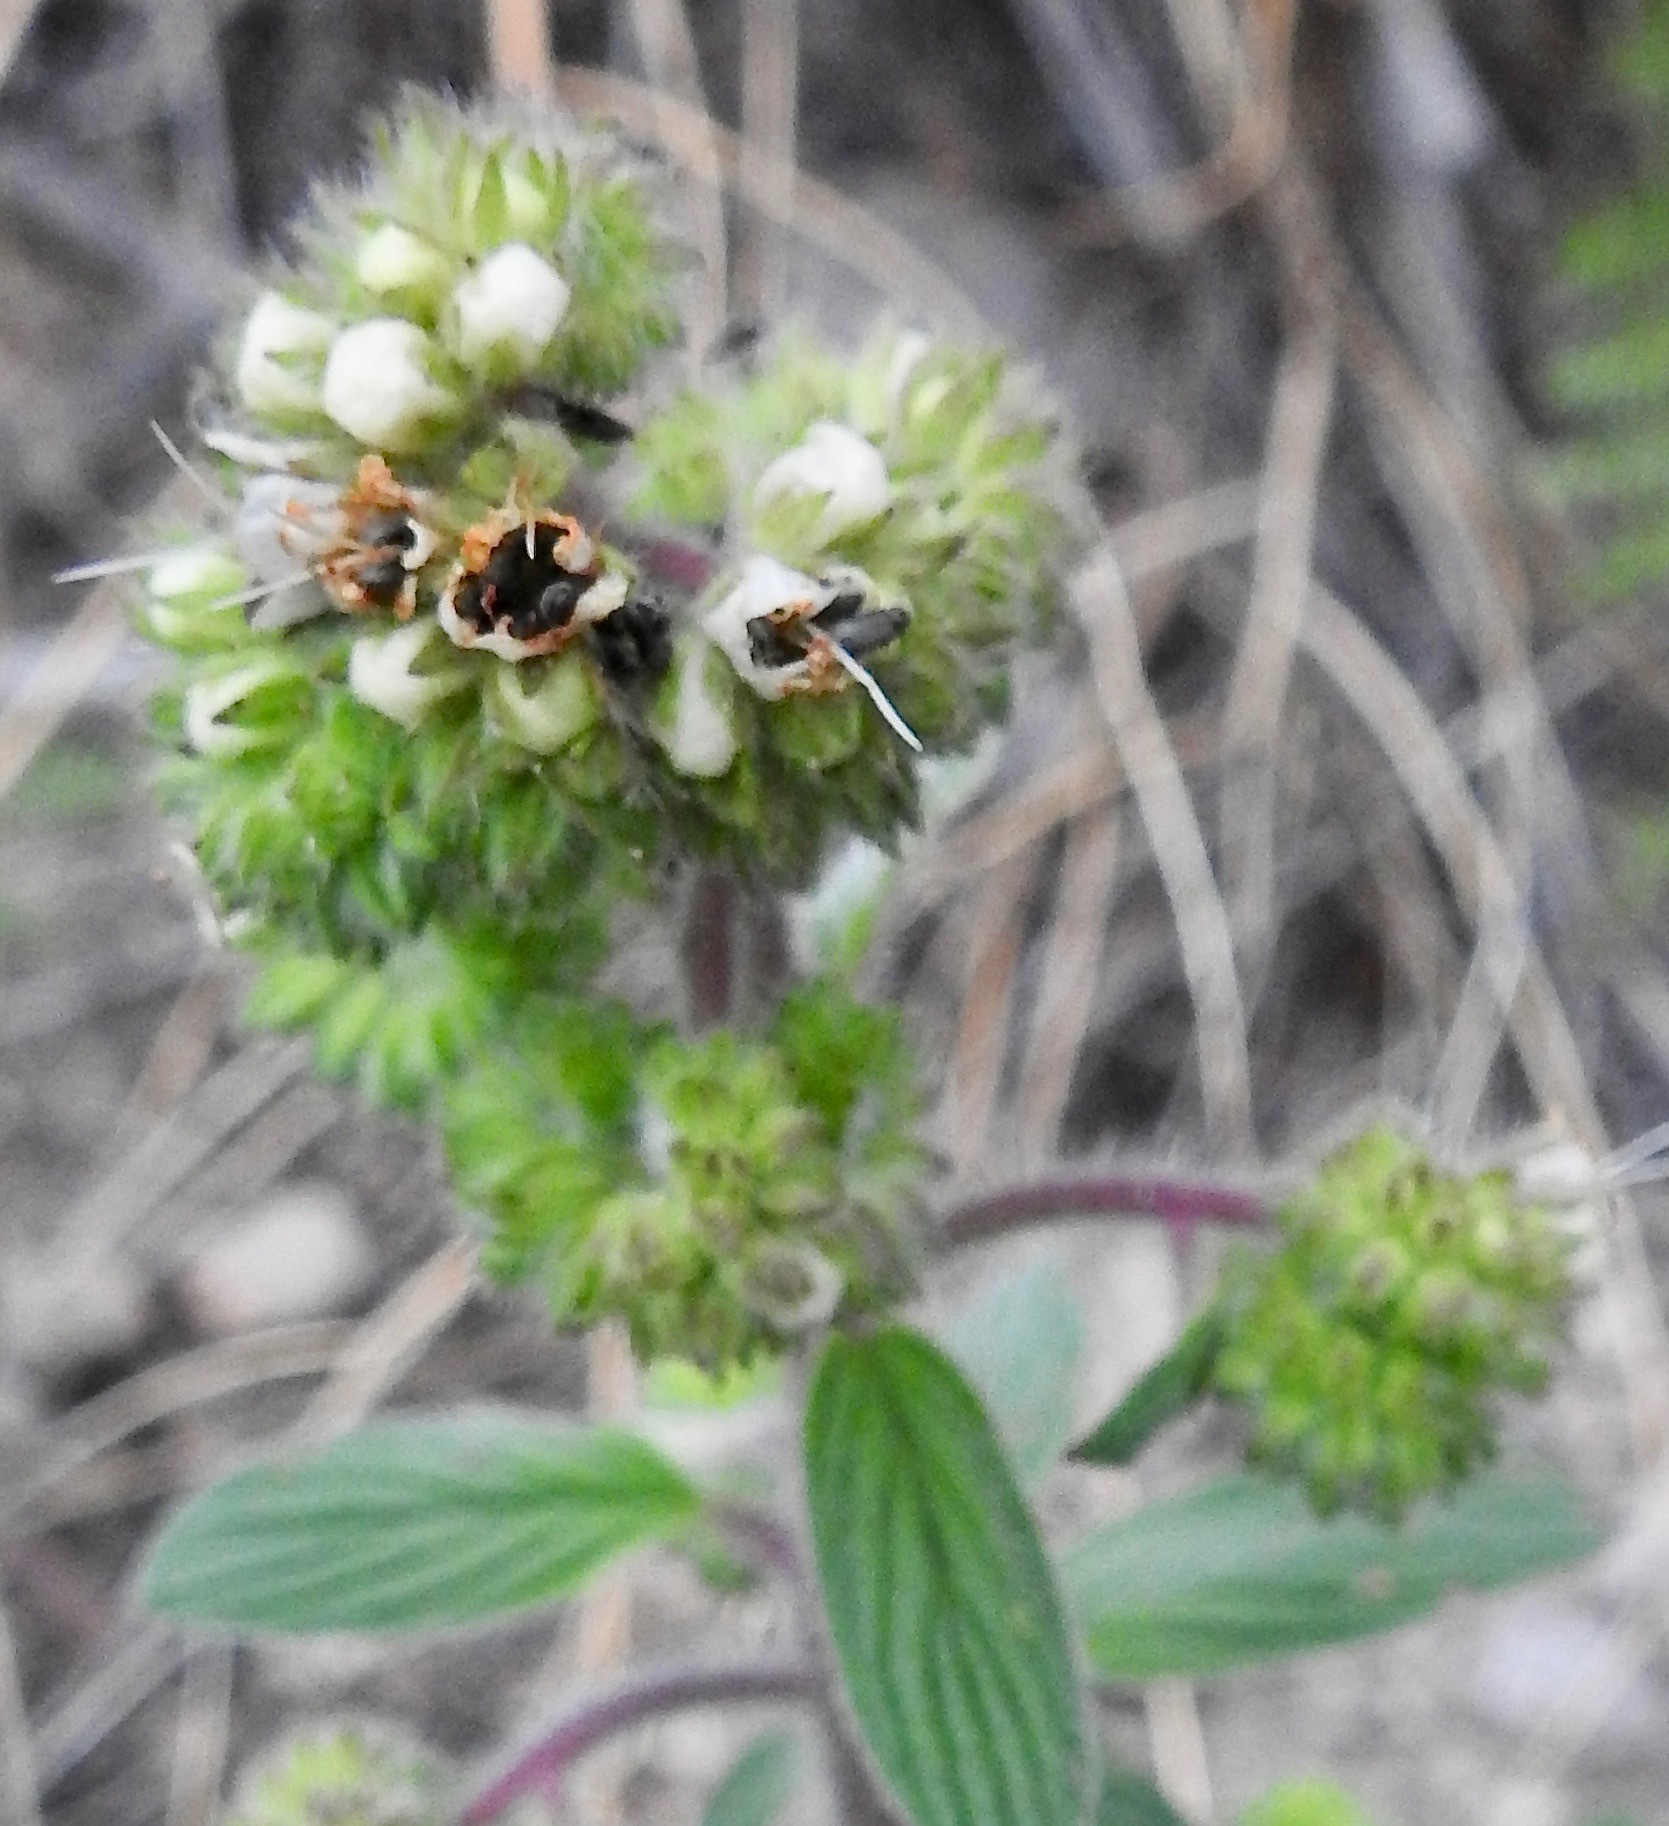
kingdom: Plantae
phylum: Tracheophyta
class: Magnoliopsida
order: Boraginales
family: Hydrophyllaceae
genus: Phacelia
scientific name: Phacelia heterophylla
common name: Variable-leaved phacelia
